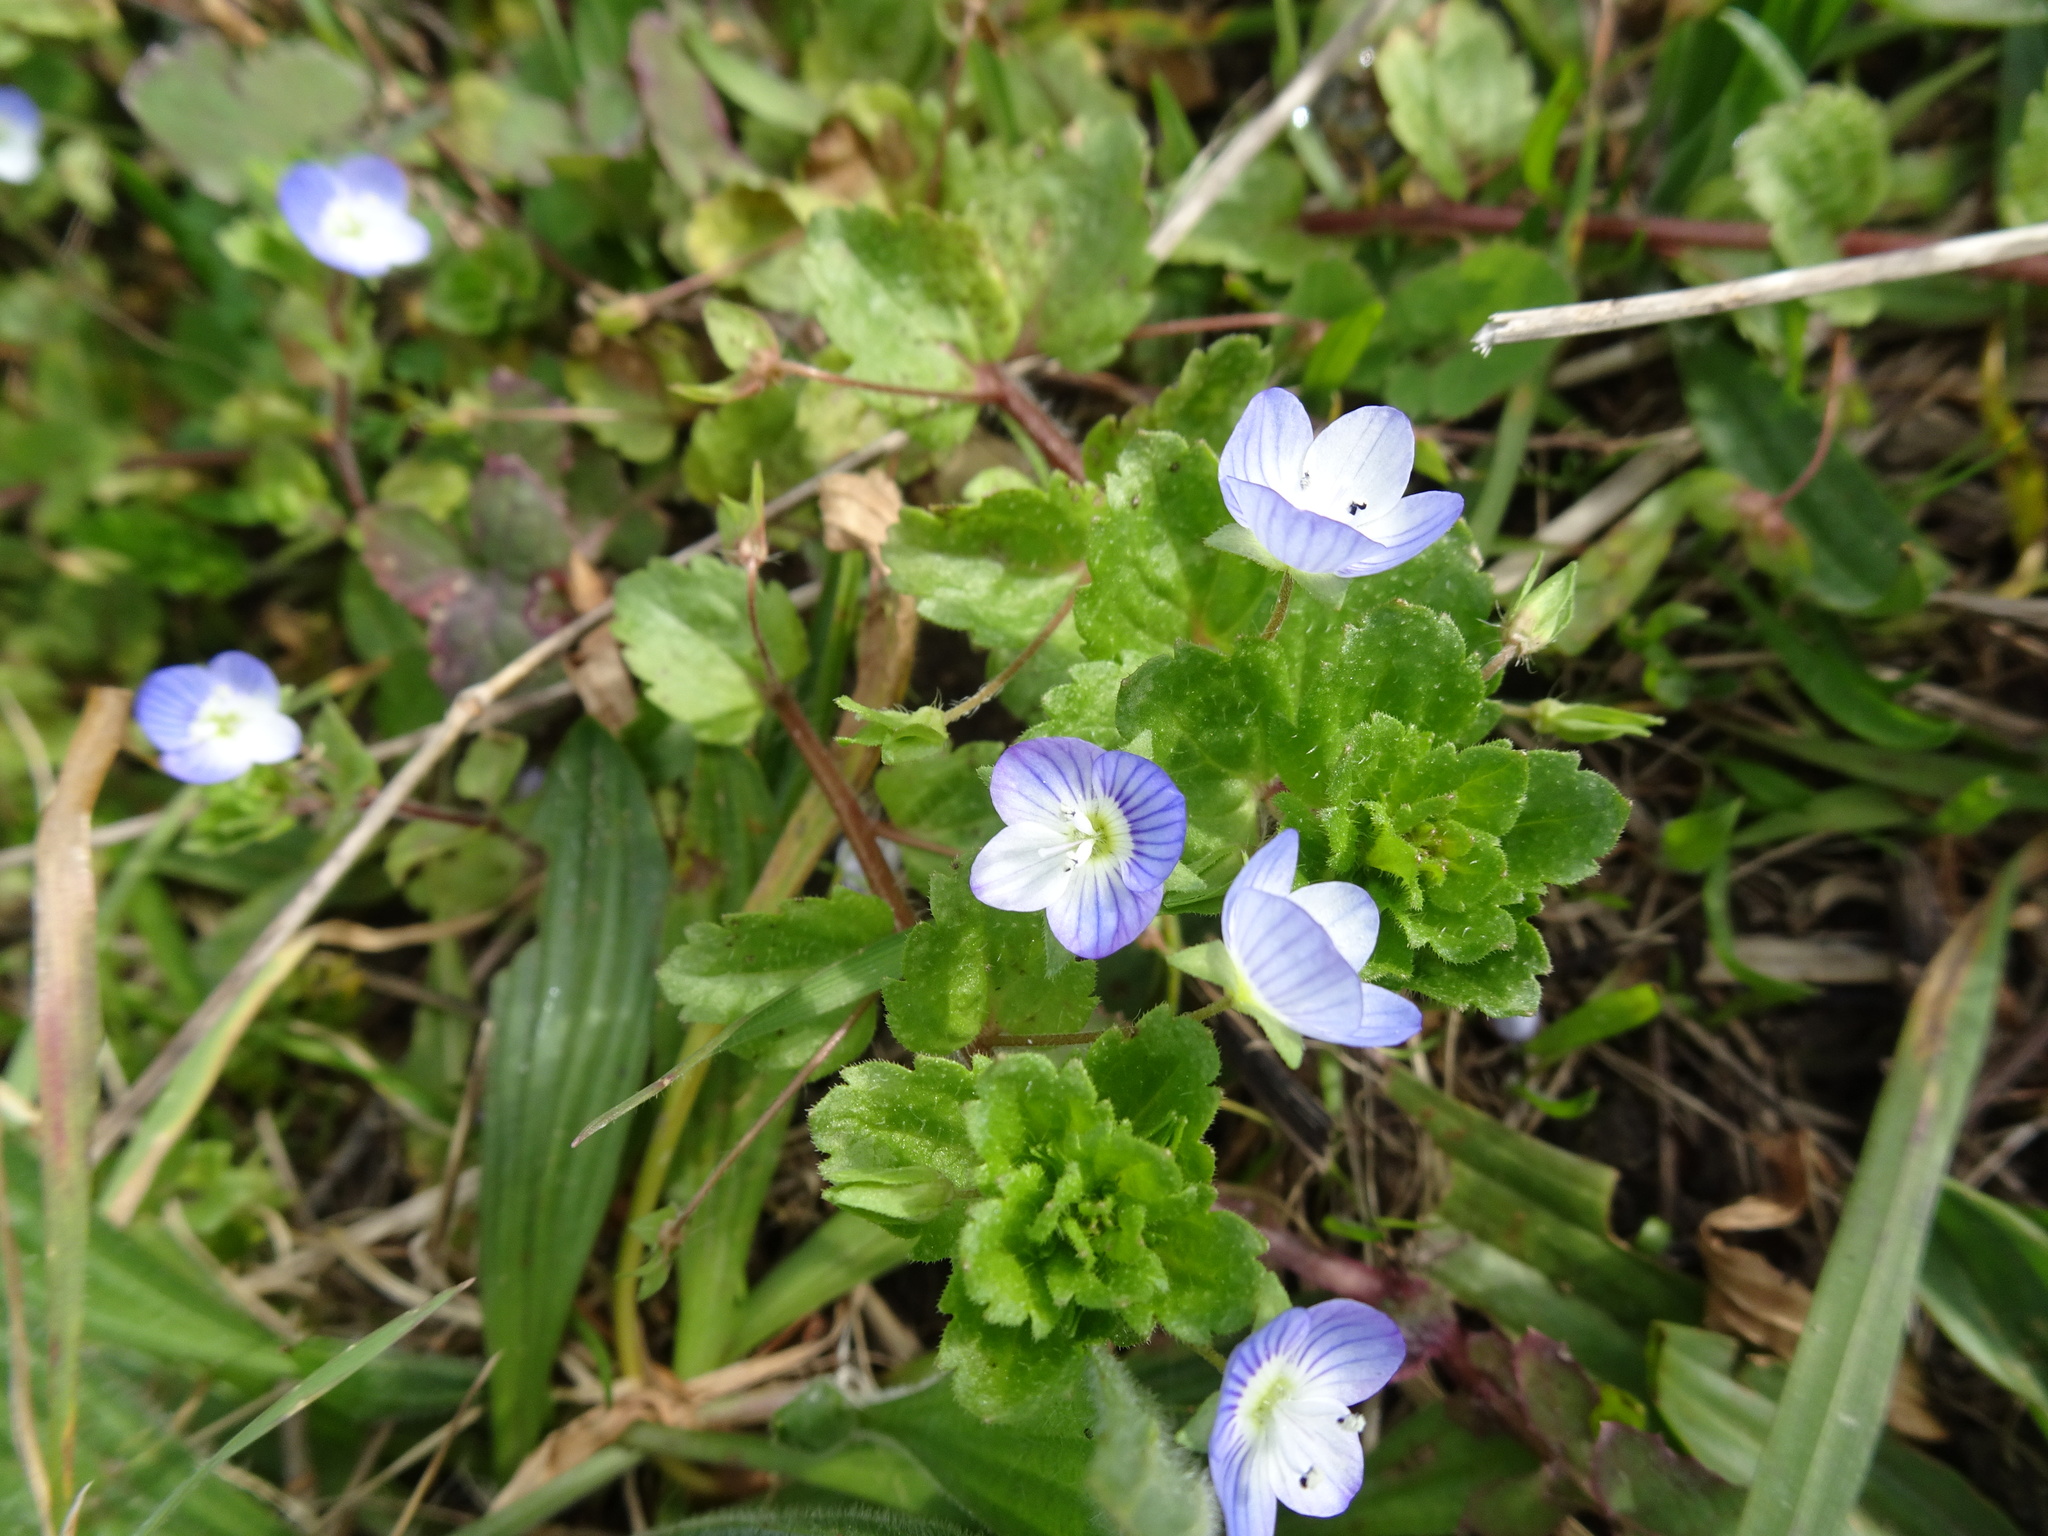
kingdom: Plantae
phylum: Tracheophyta
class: Magnoliopsida
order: Lamiales
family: Plantaginaceae
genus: Veronica
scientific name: Veronica persica
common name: Common field-speedwell
